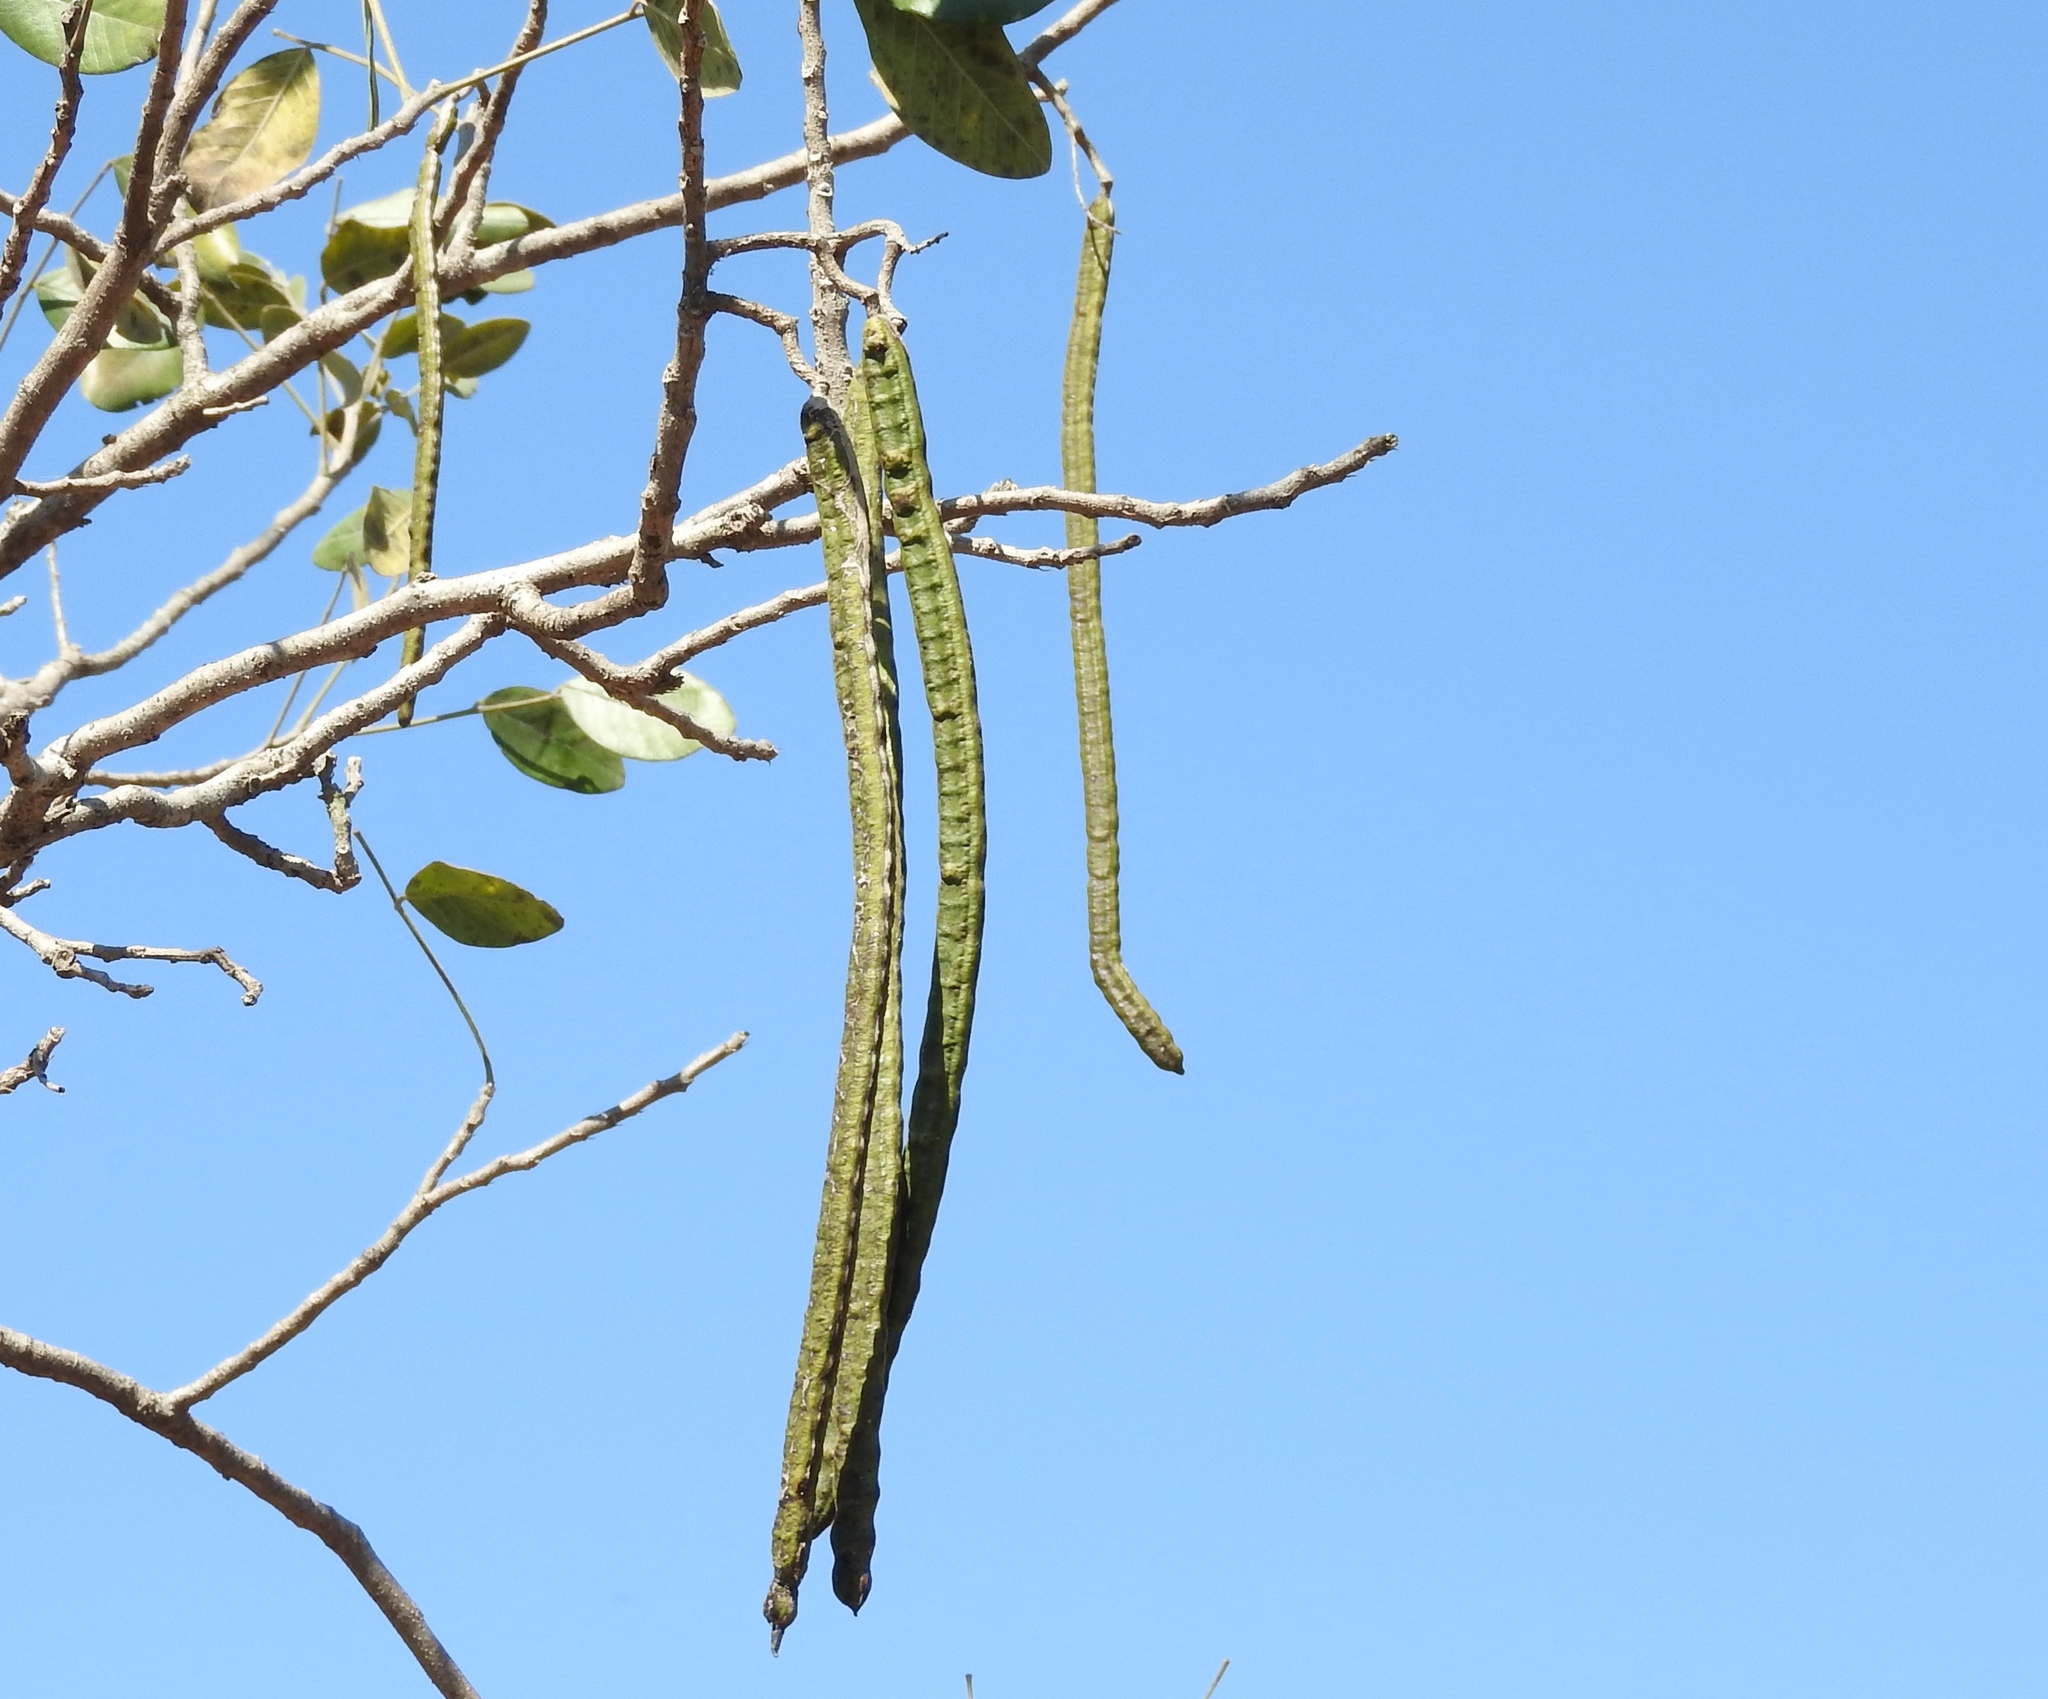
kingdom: Plantae
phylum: Tracheophyta
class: Magnoliopsida
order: Fabales
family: Fabaceae
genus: Senna
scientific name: Senna atomaria
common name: Flor de san jose
